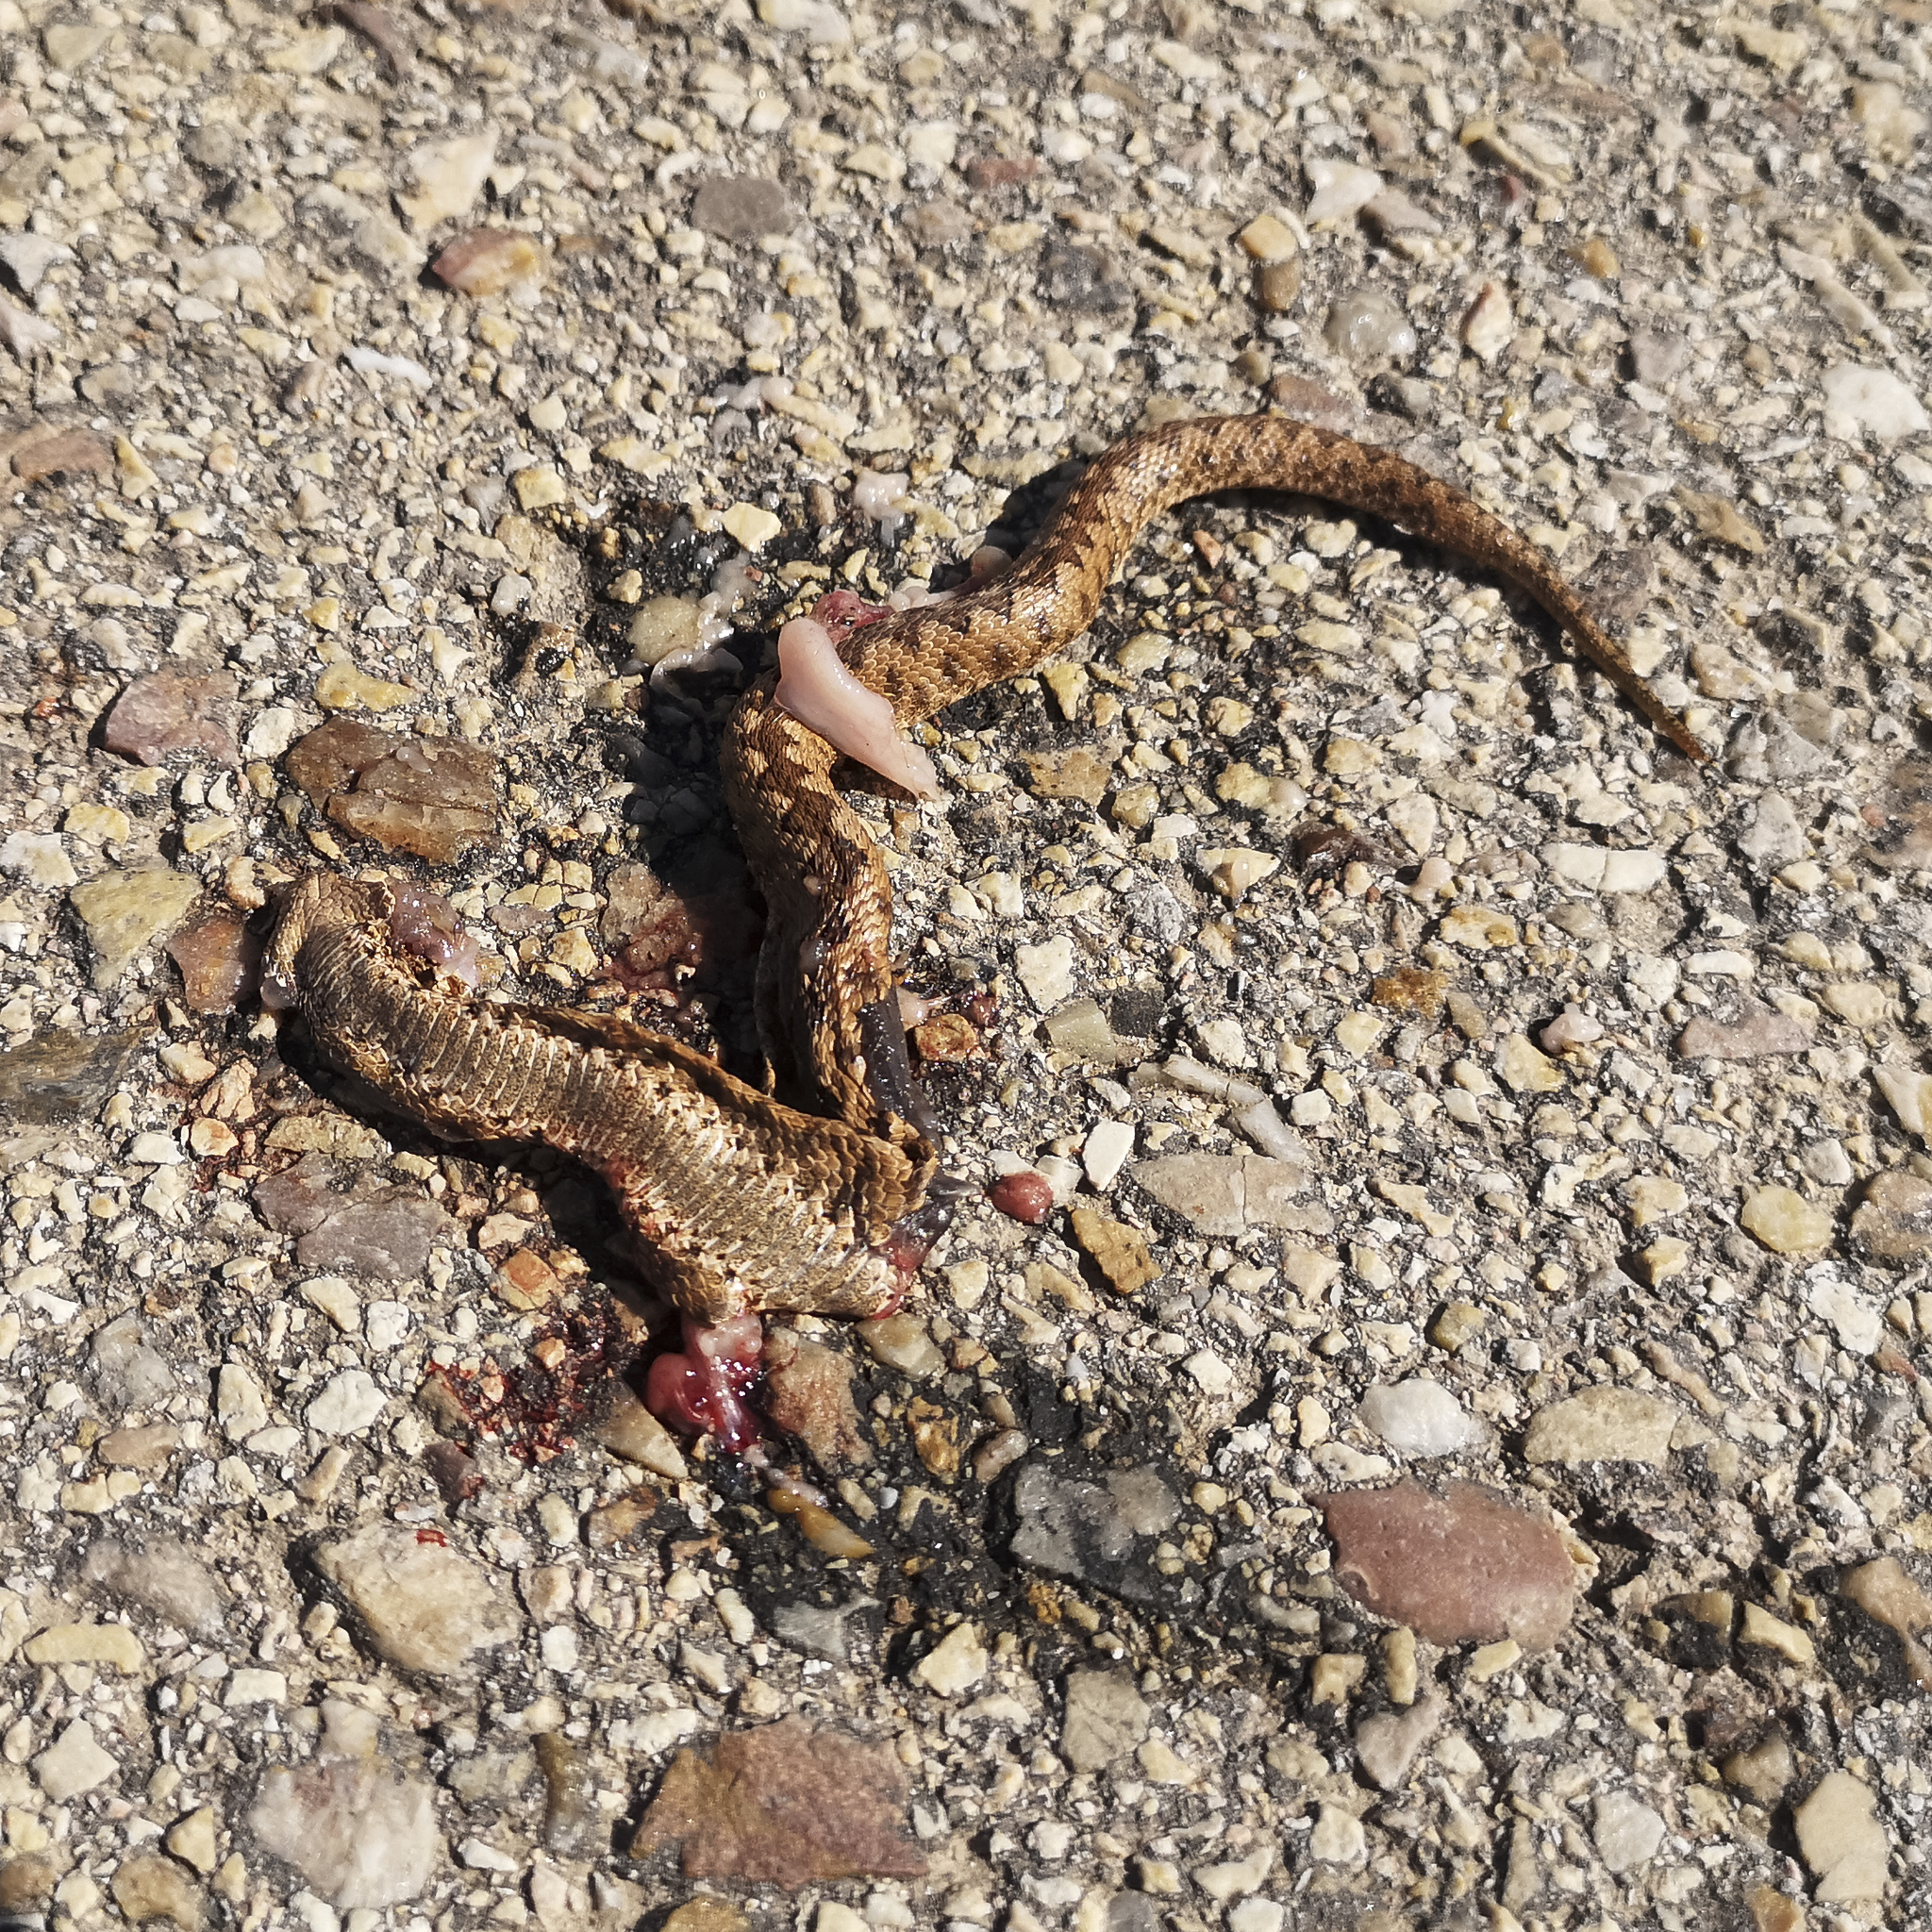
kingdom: Animalia
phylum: Chordata
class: Squamata
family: Viperidae
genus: Vipera
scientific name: Vipera latastei
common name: Lataste's viper
